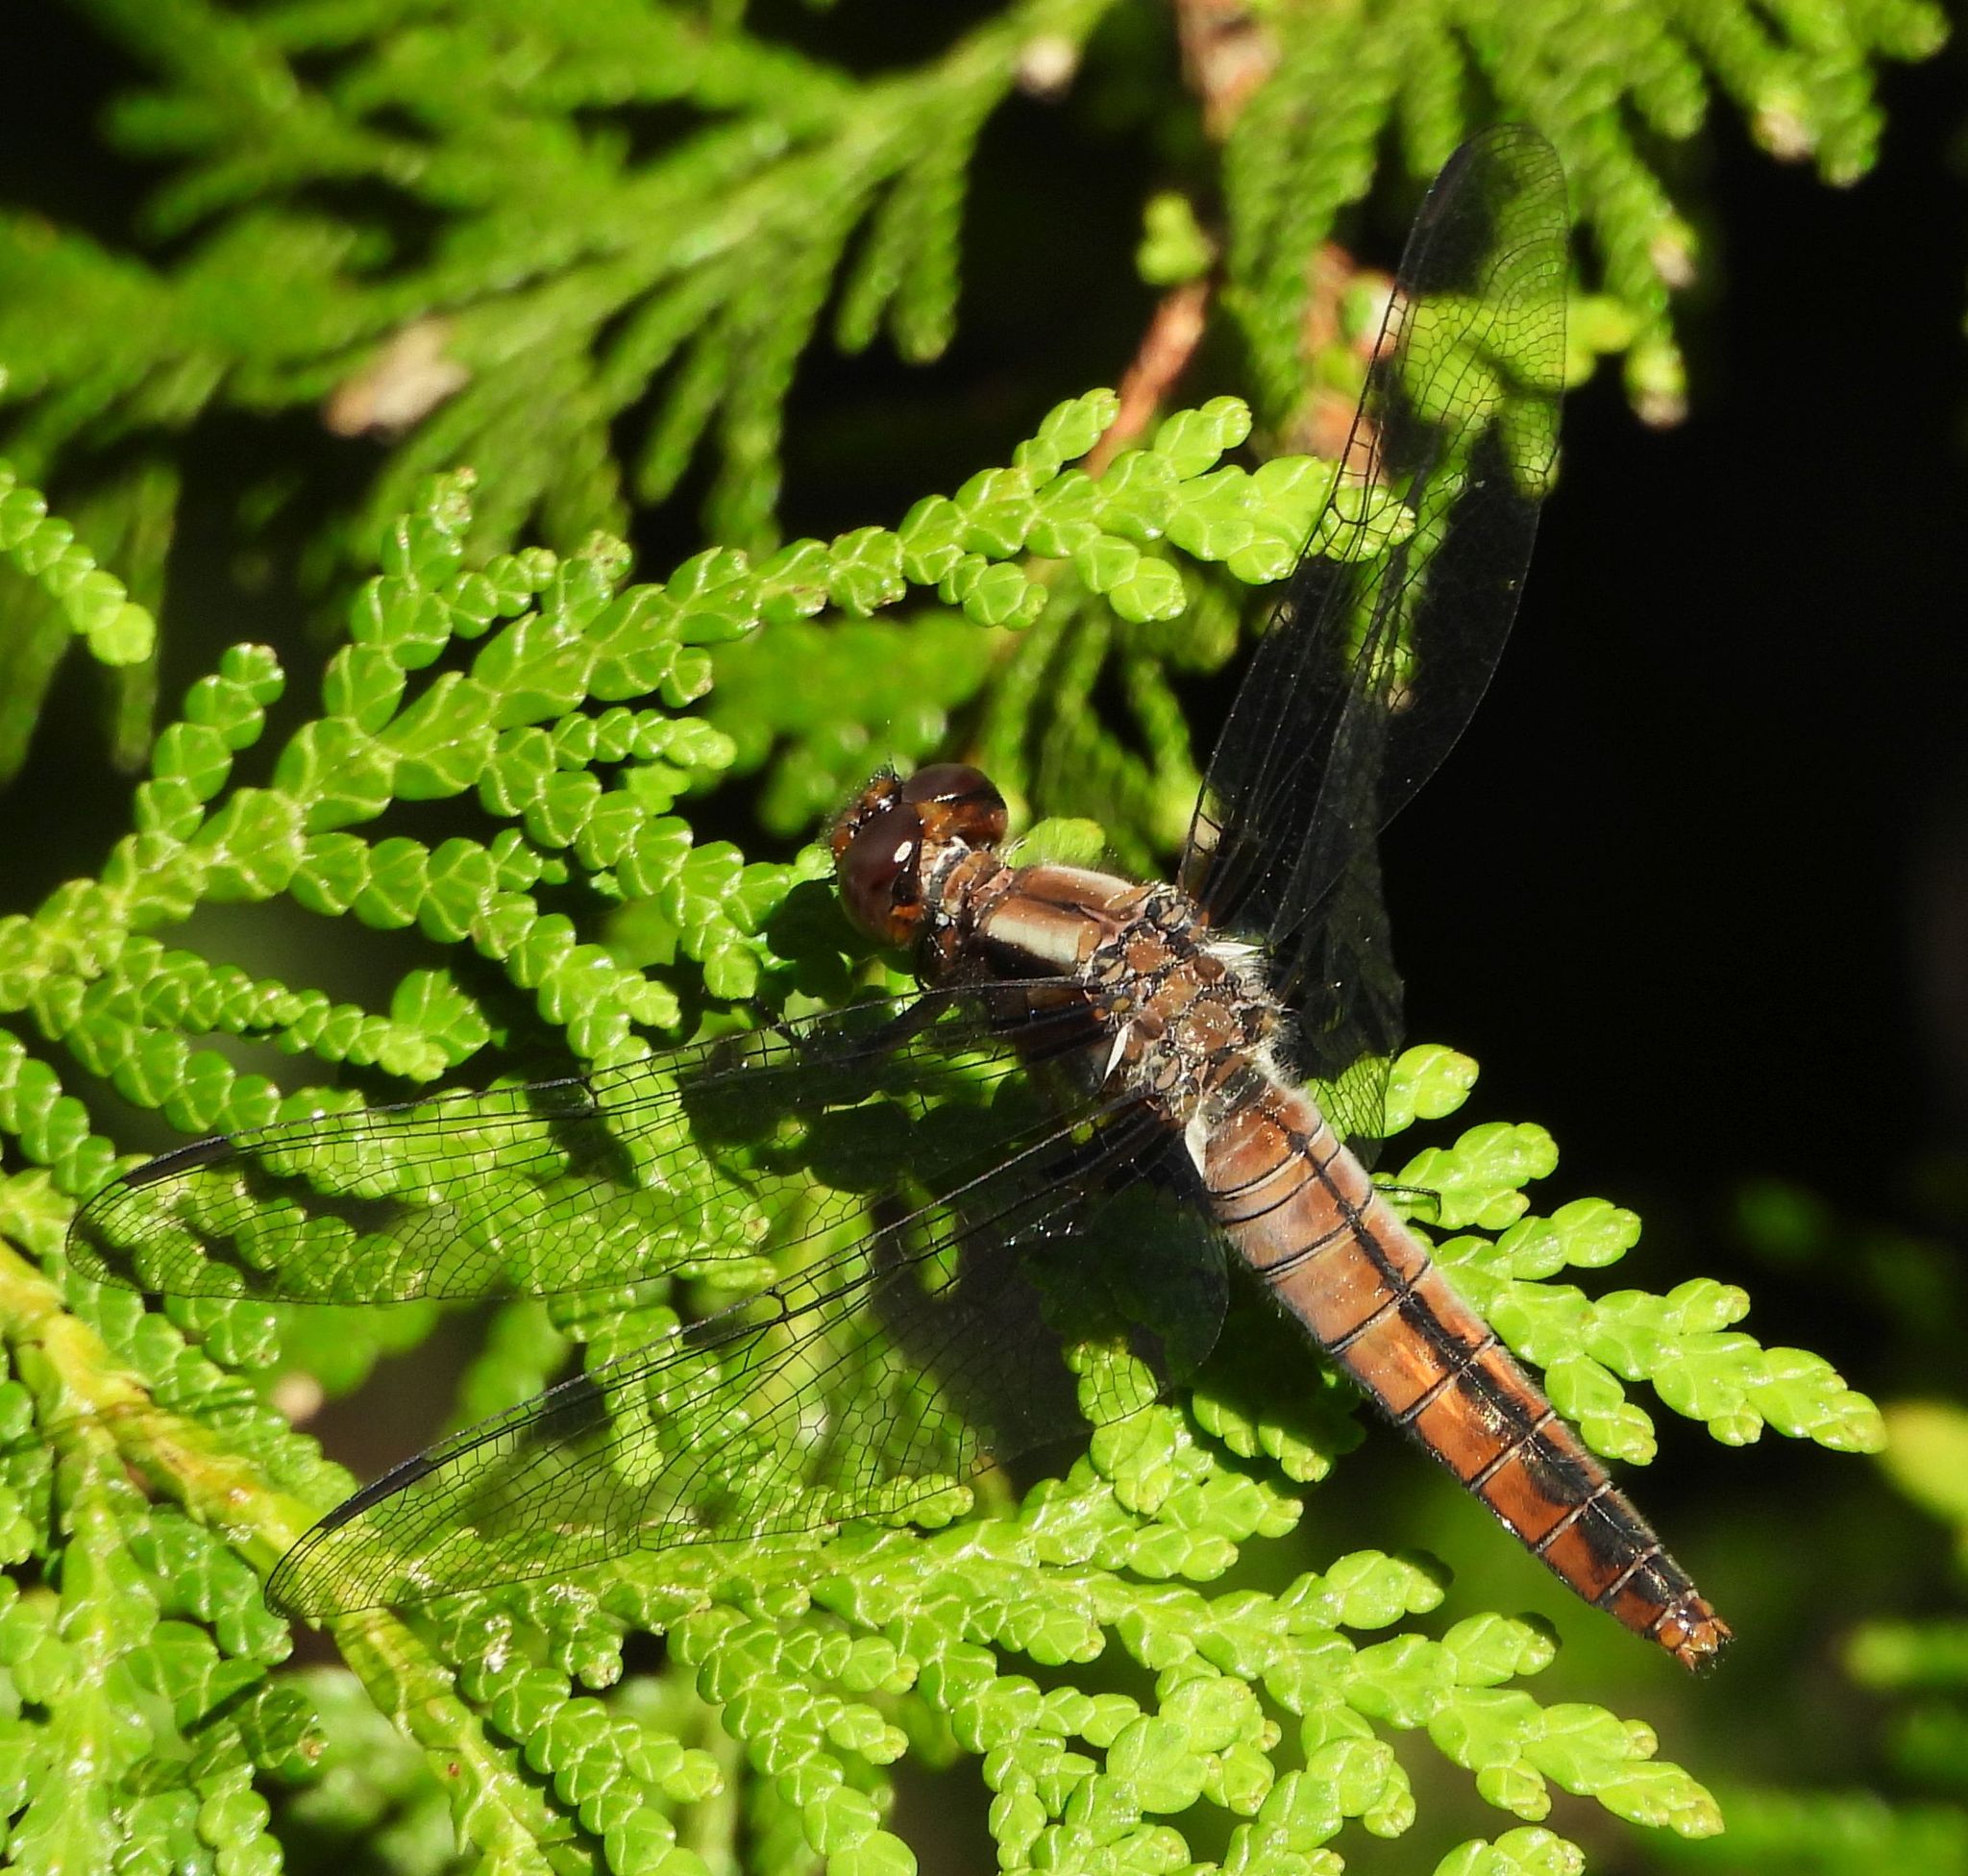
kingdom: Animalia
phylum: Arthropoda
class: Insecta
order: Odonata
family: Libellulidae
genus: Ladona
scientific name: Ladona julia
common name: Chalk-fronted corporal
